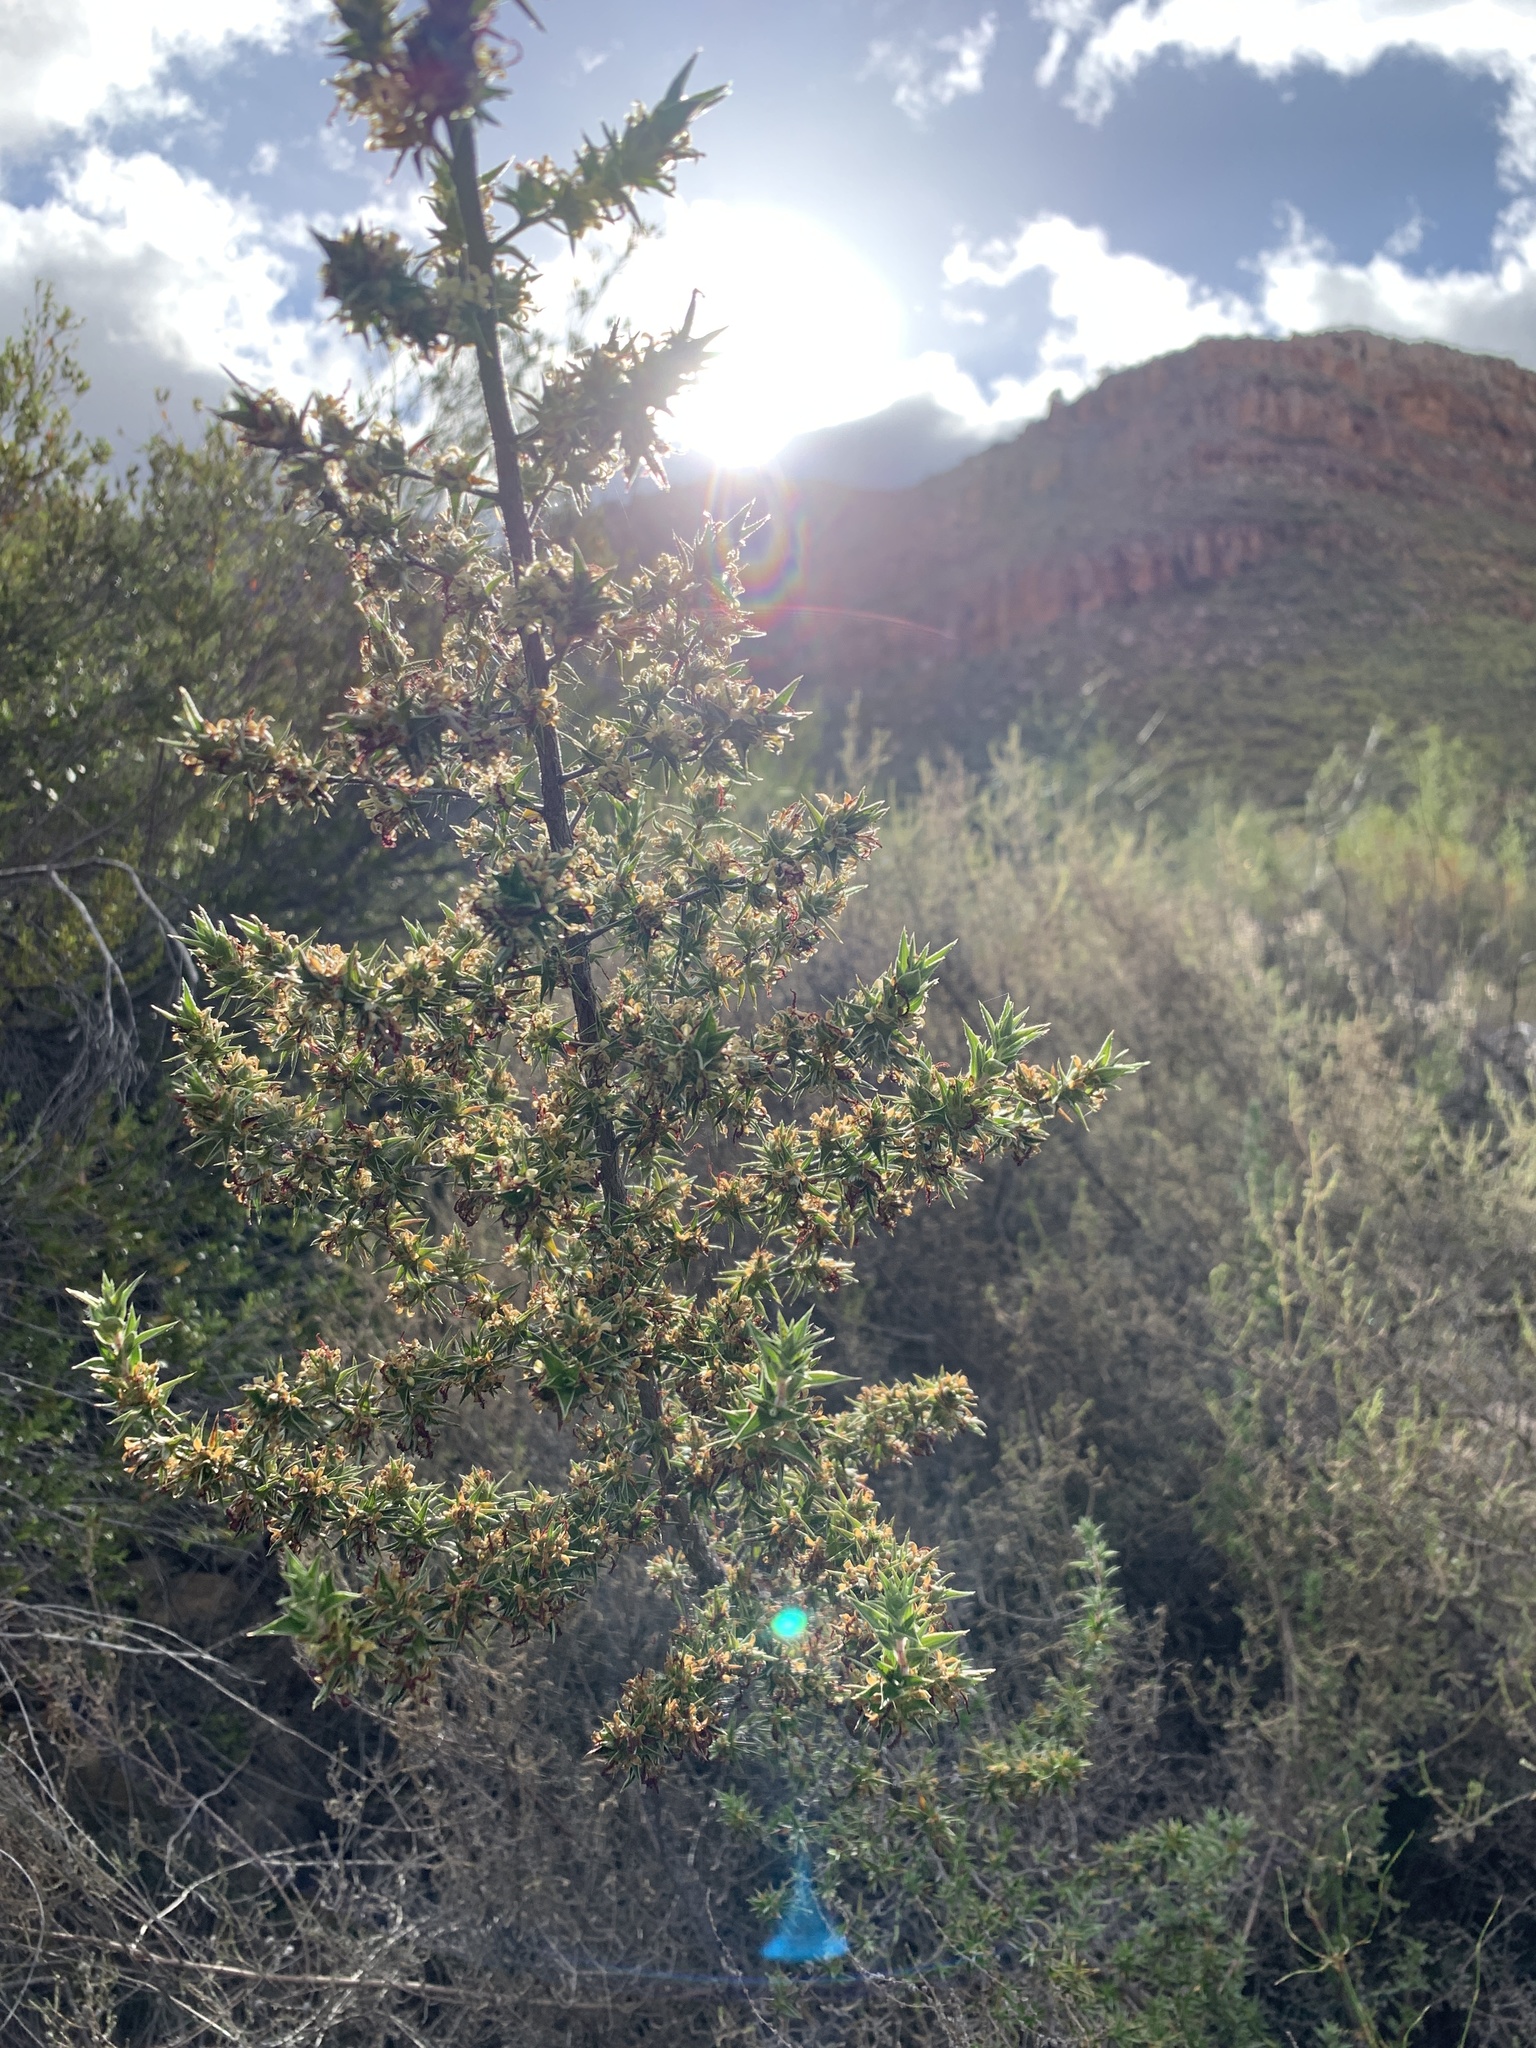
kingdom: Plantae
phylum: Tracheophyta
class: Magnoliopsida
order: Rosales
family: Rosaceae
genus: Cliffortia
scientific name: Cliffortia ruscifolia
